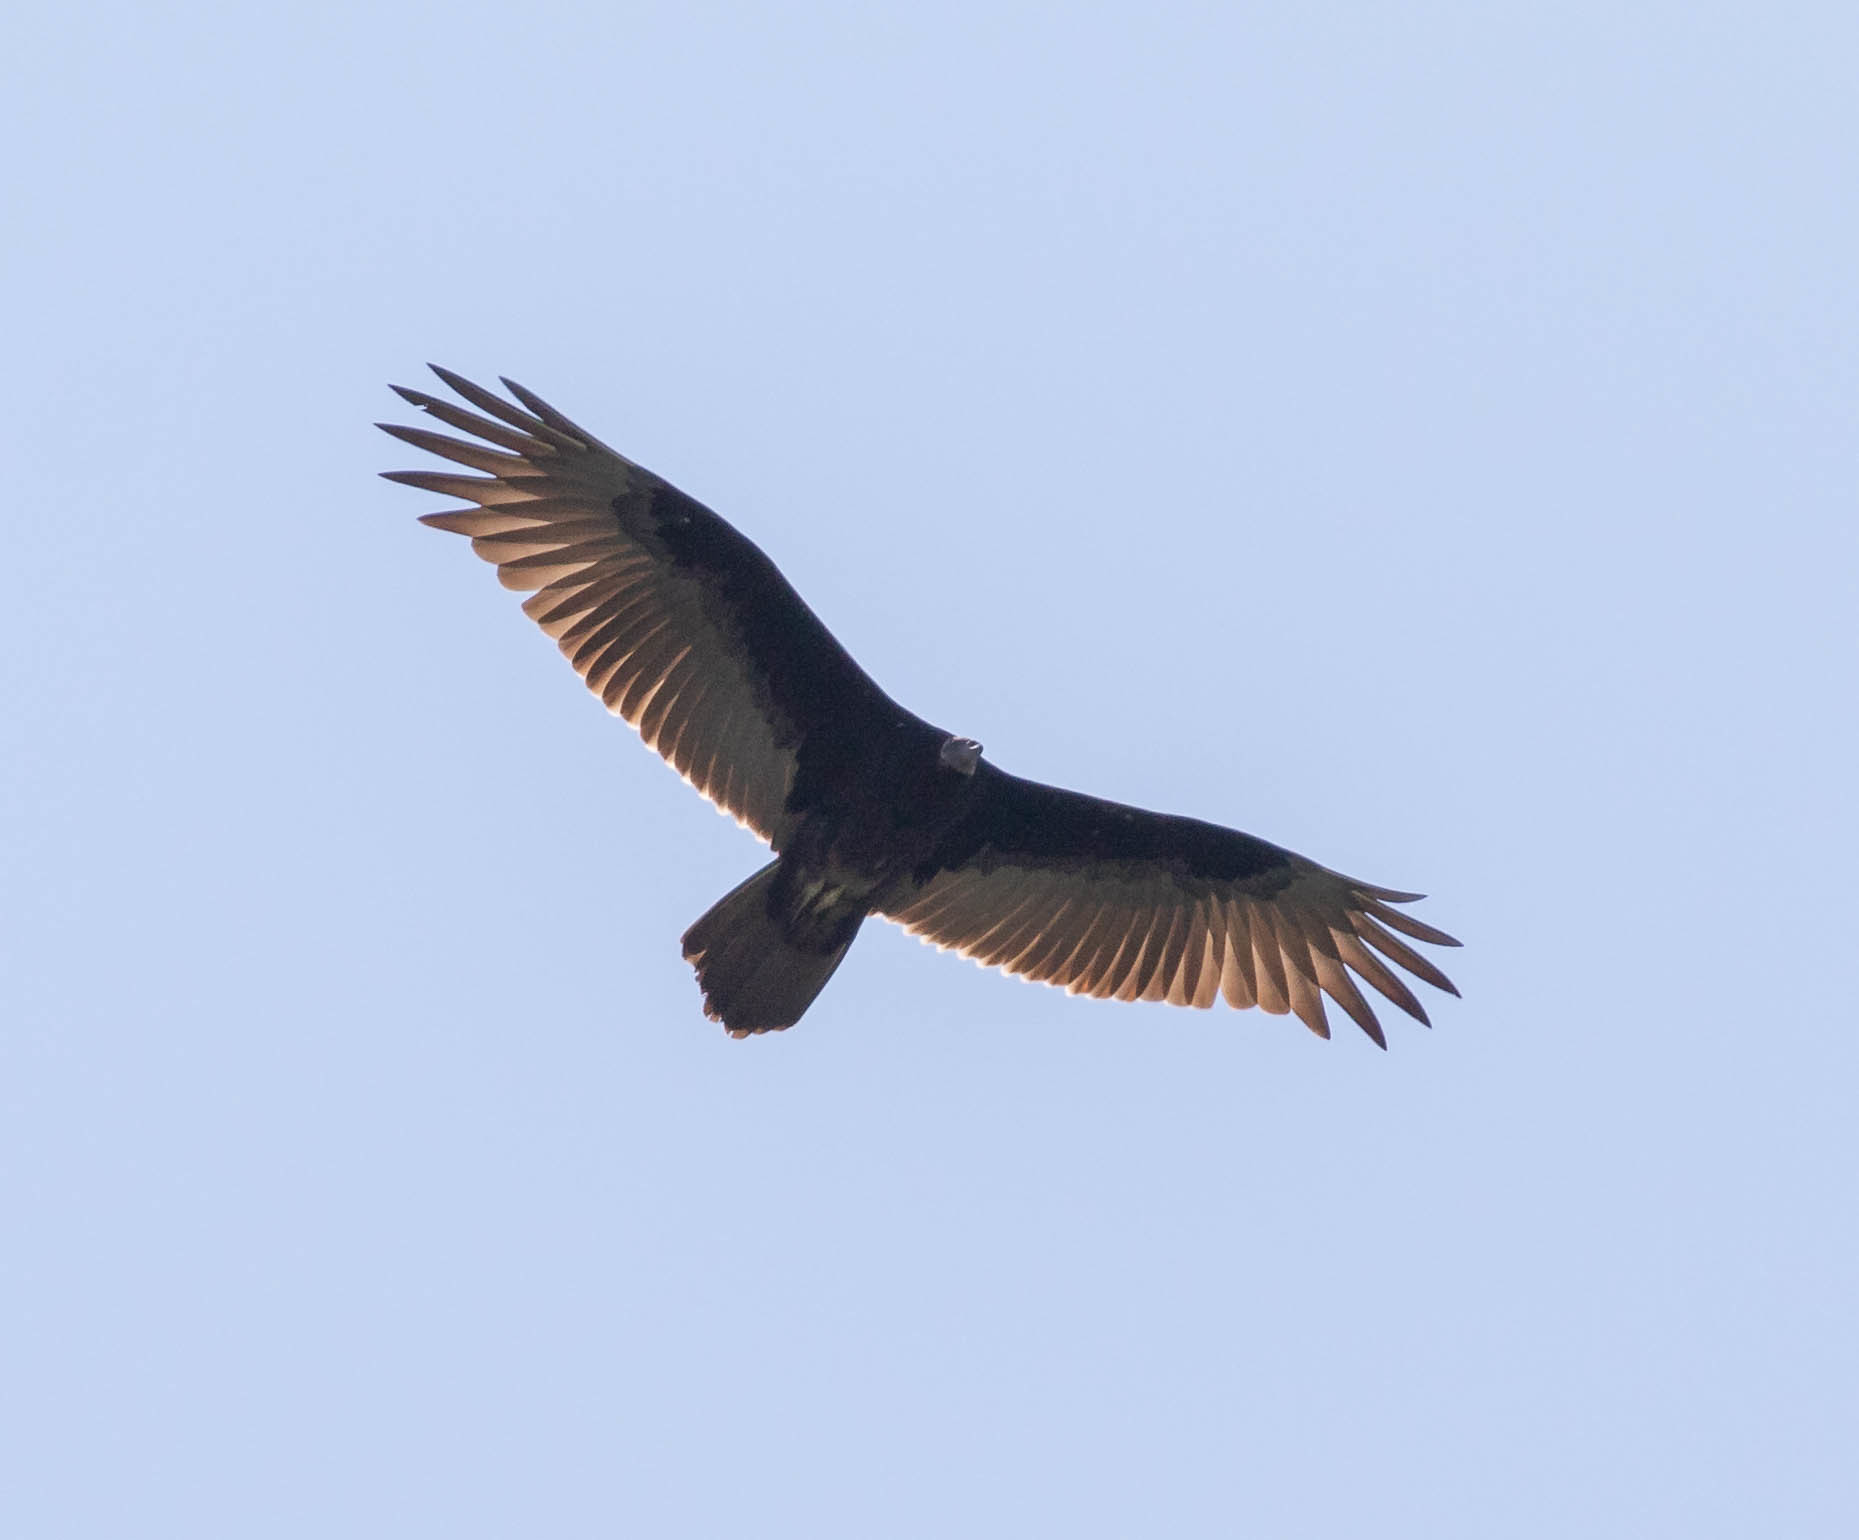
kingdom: Animalia
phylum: Chordata
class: Aves
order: Accipitriformes
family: Cathartidae
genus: Cathartes
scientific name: Cathartes aura
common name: Turkey vulture
